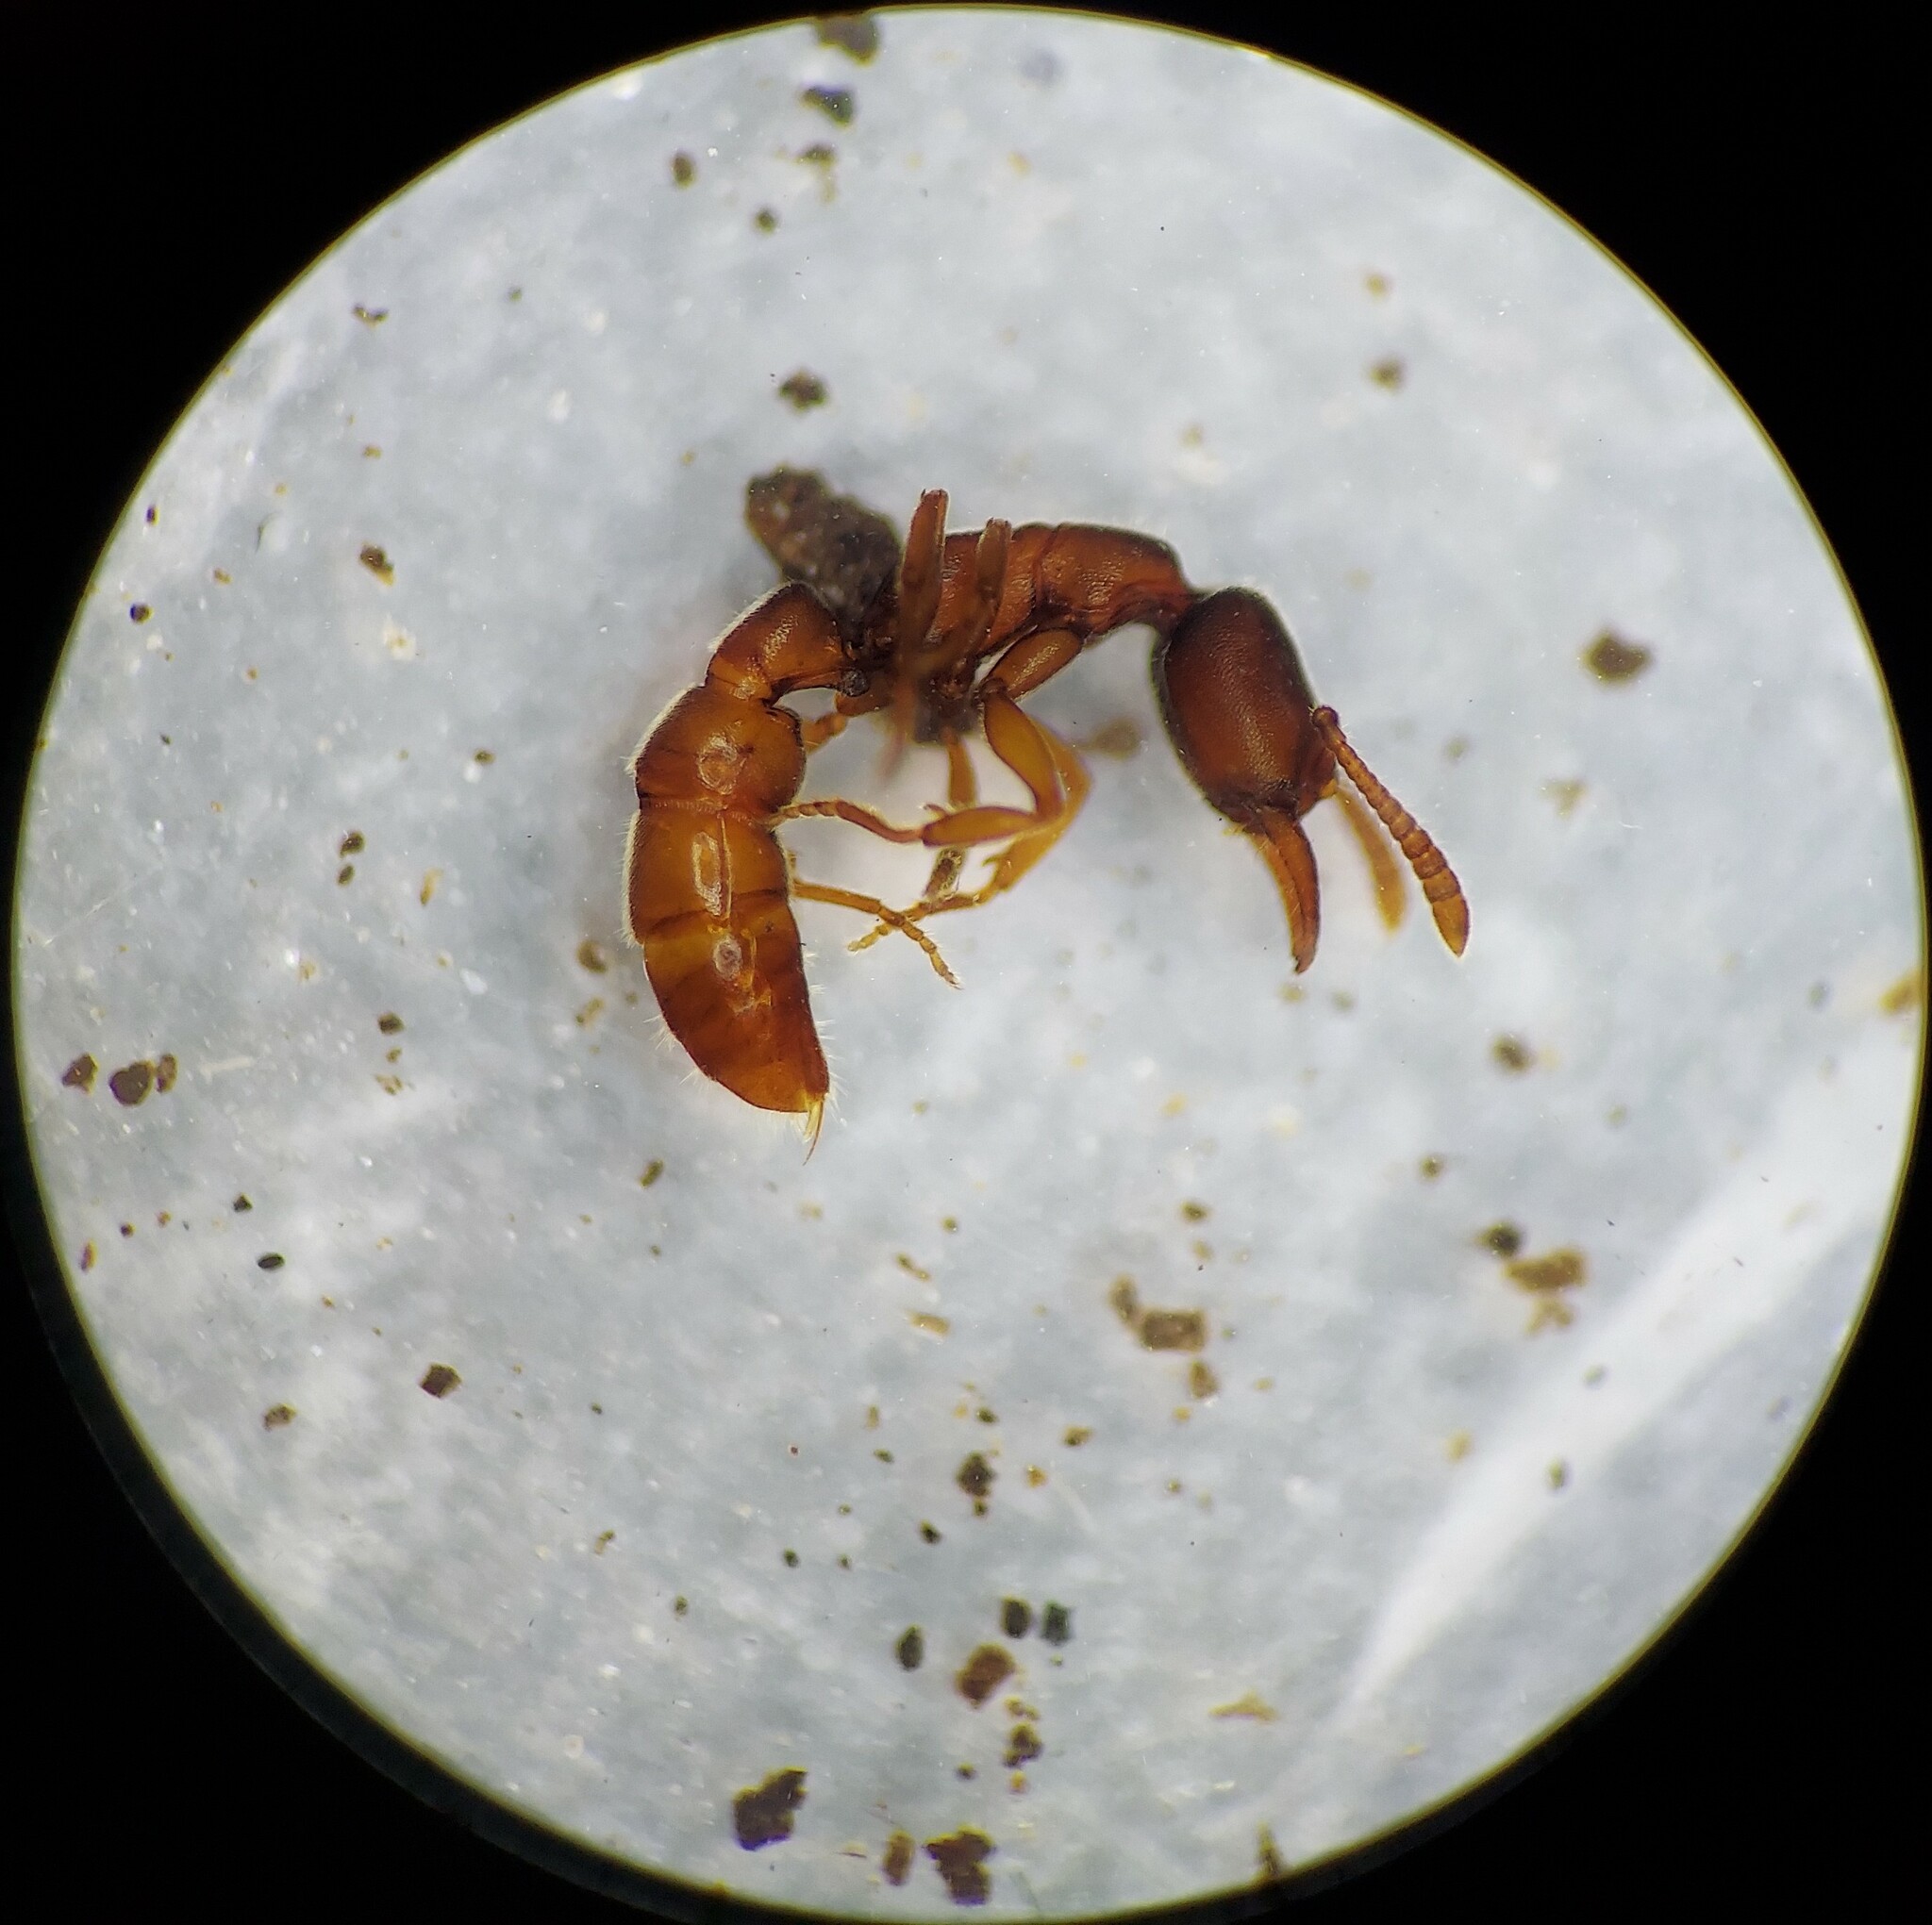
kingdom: Animalia
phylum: Arthropoda
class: Insecta
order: Hymenoptera
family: Formicidae
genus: Stigmatomma
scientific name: Stigmatomma pallipes
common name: Vampire ant
